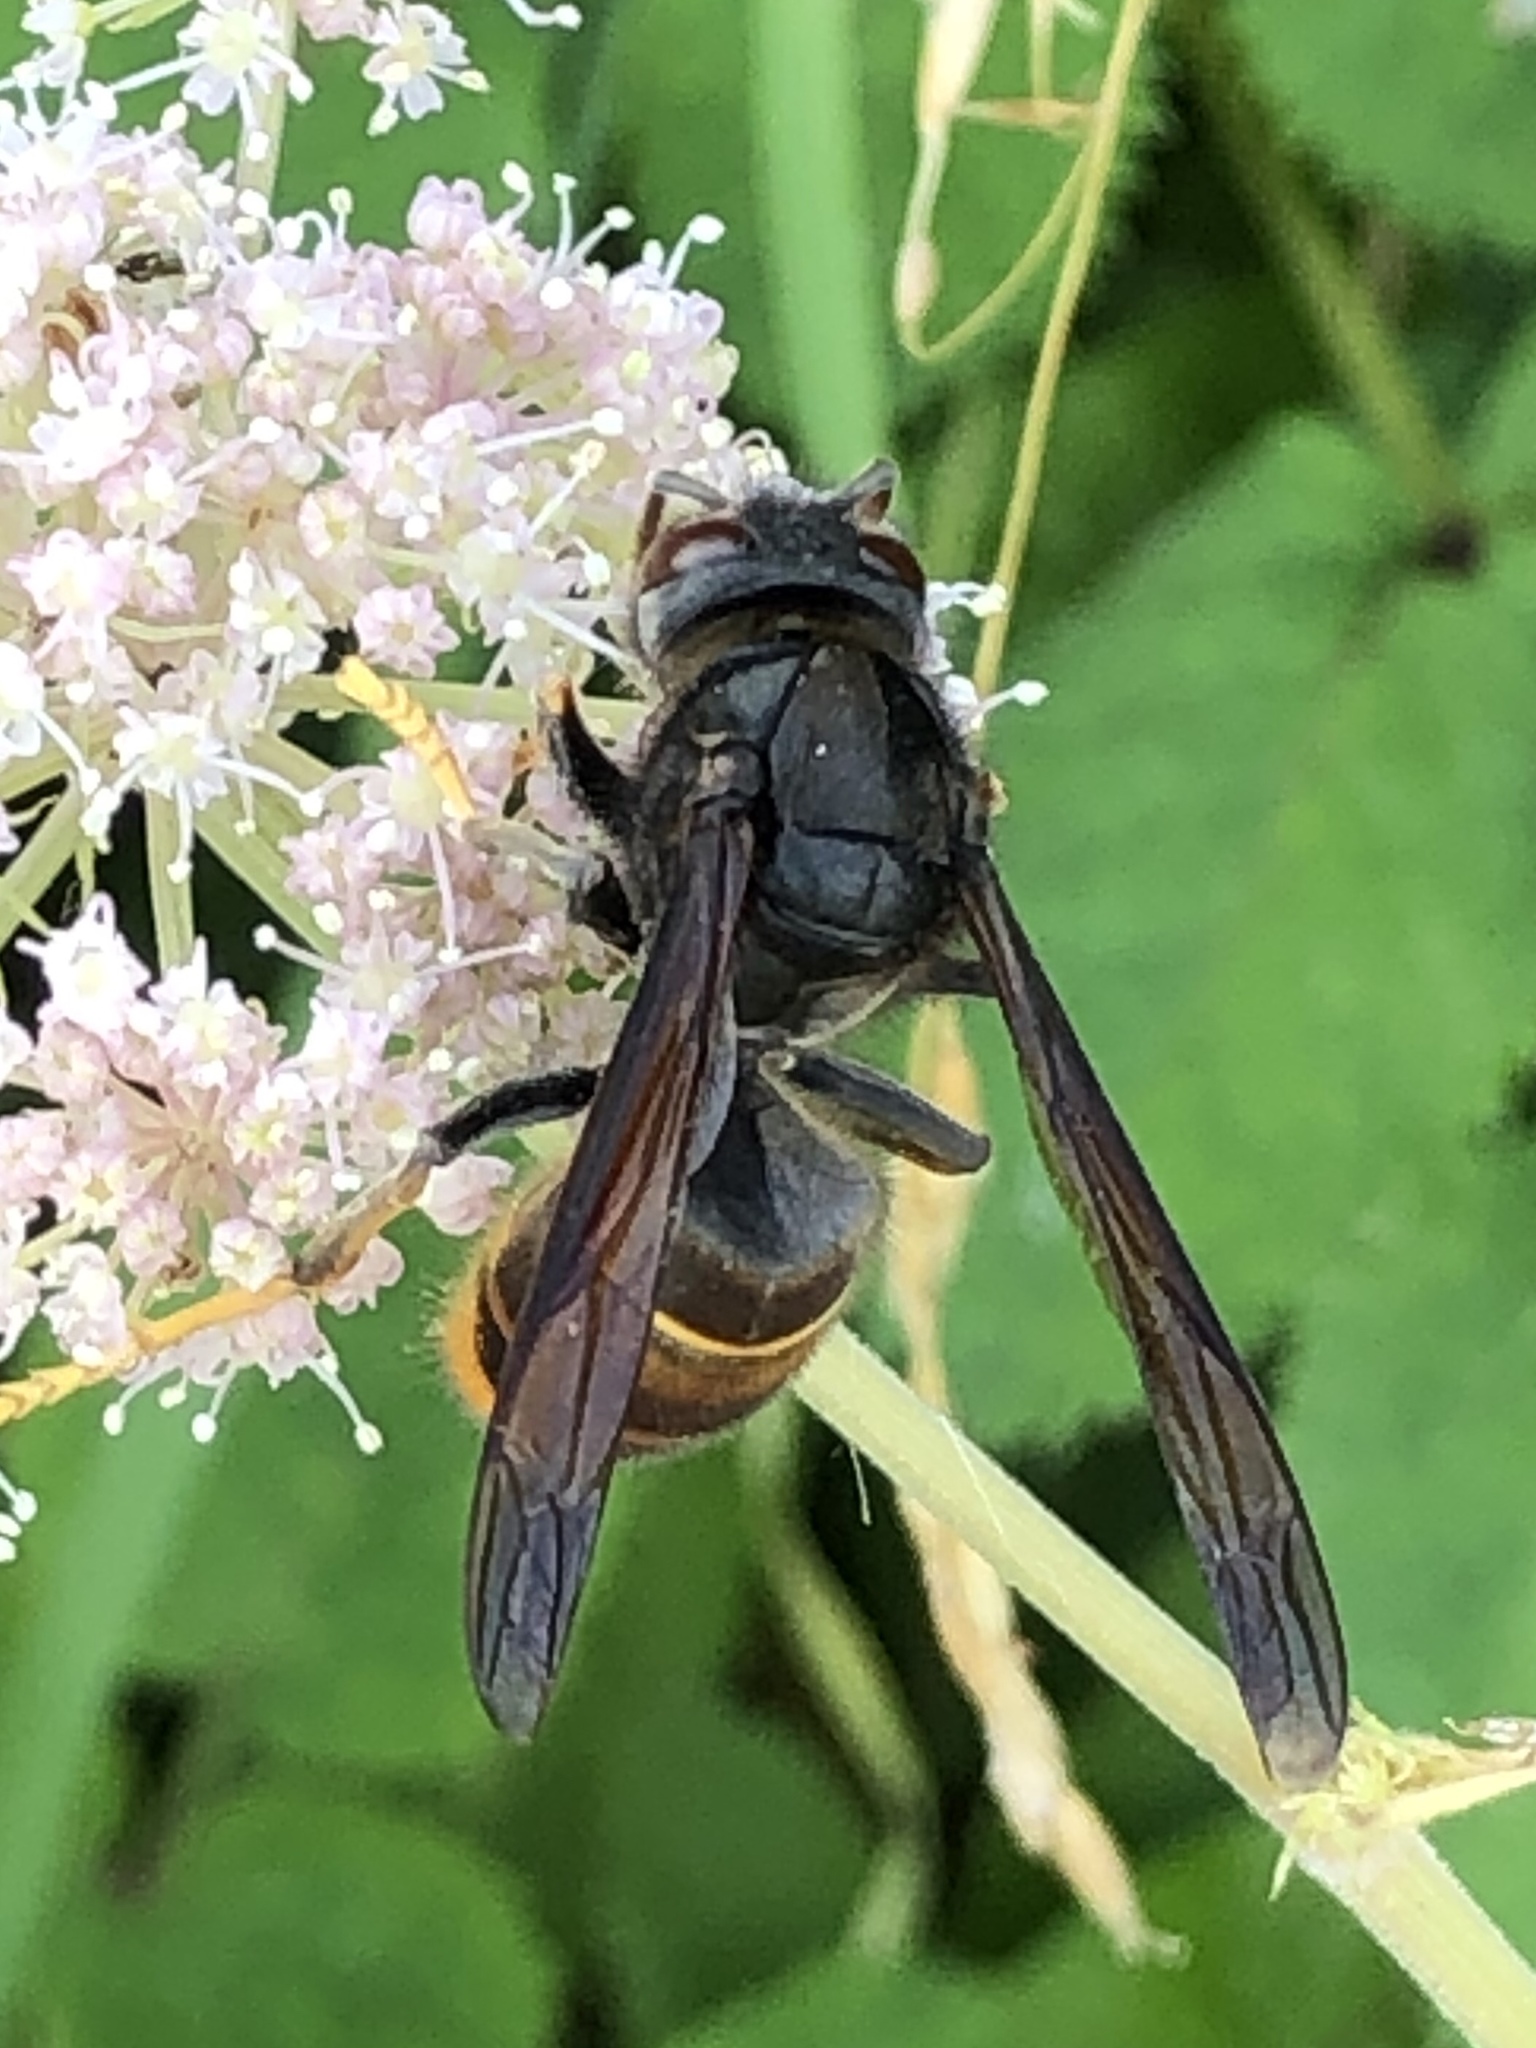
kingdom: Animalia
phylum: Arthropoda
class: Insecta
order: Hymenoptera
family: Vespidae
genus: Vespa
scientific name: Vespa velutina
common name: Asian hornet
